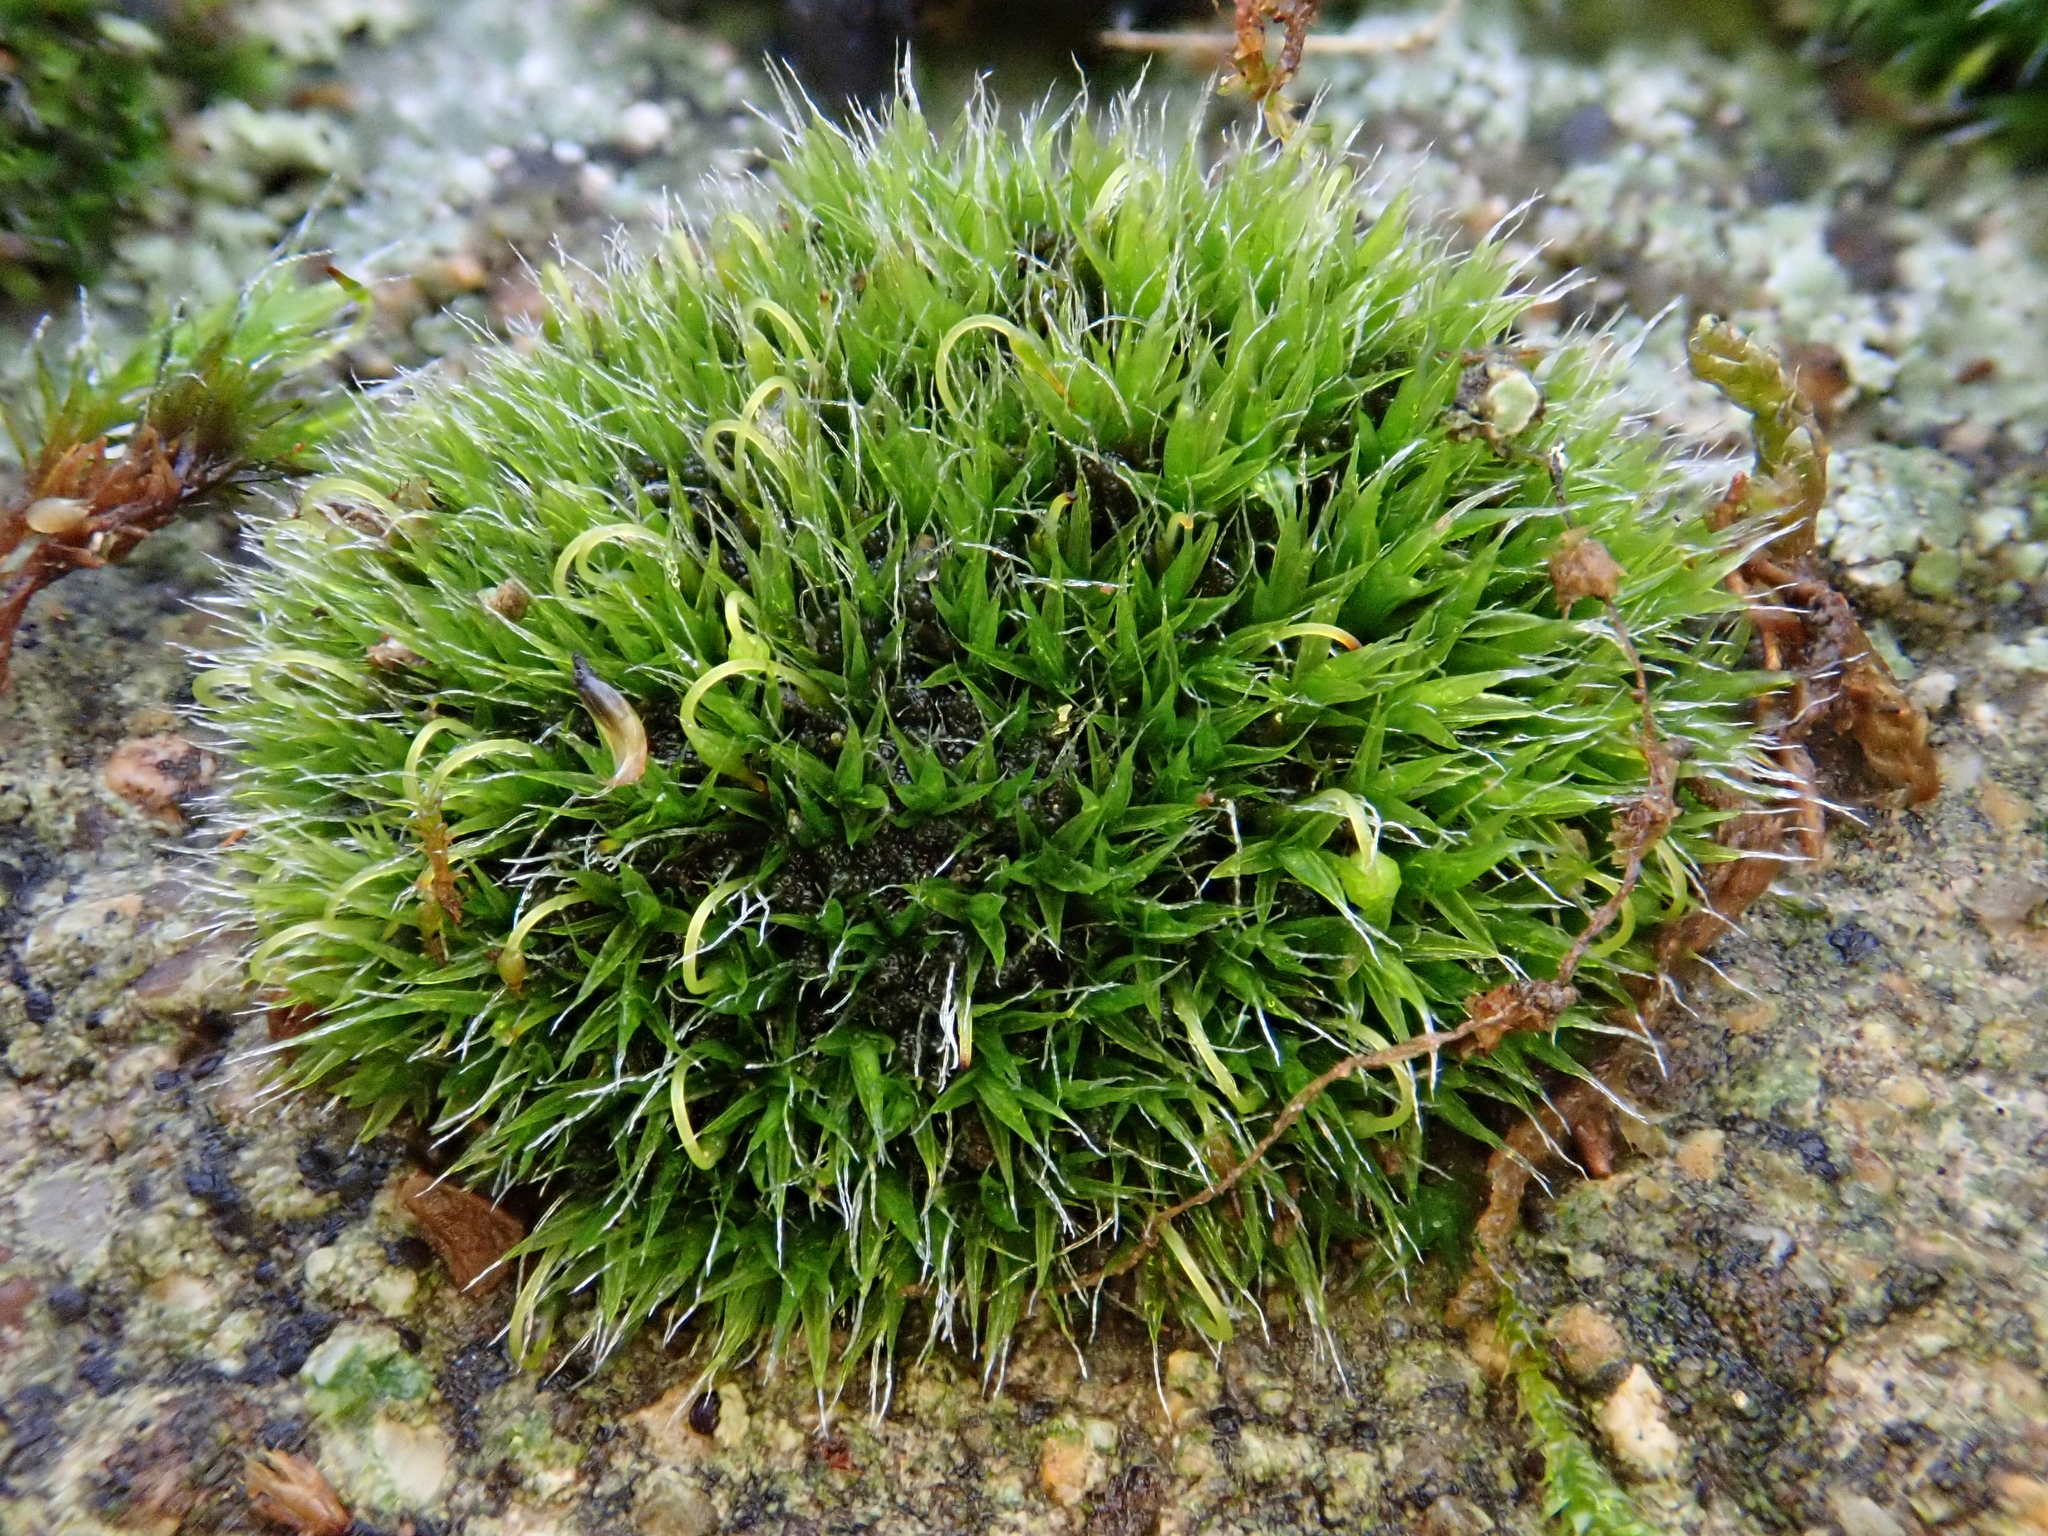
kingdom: Plantae
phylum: Bryophyta
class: Bryopsida
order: Grimmiales
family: Grimmiaceae
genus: Grimmia
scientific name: Grimmia pulvinata
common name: Grey-cushioned grimmia
